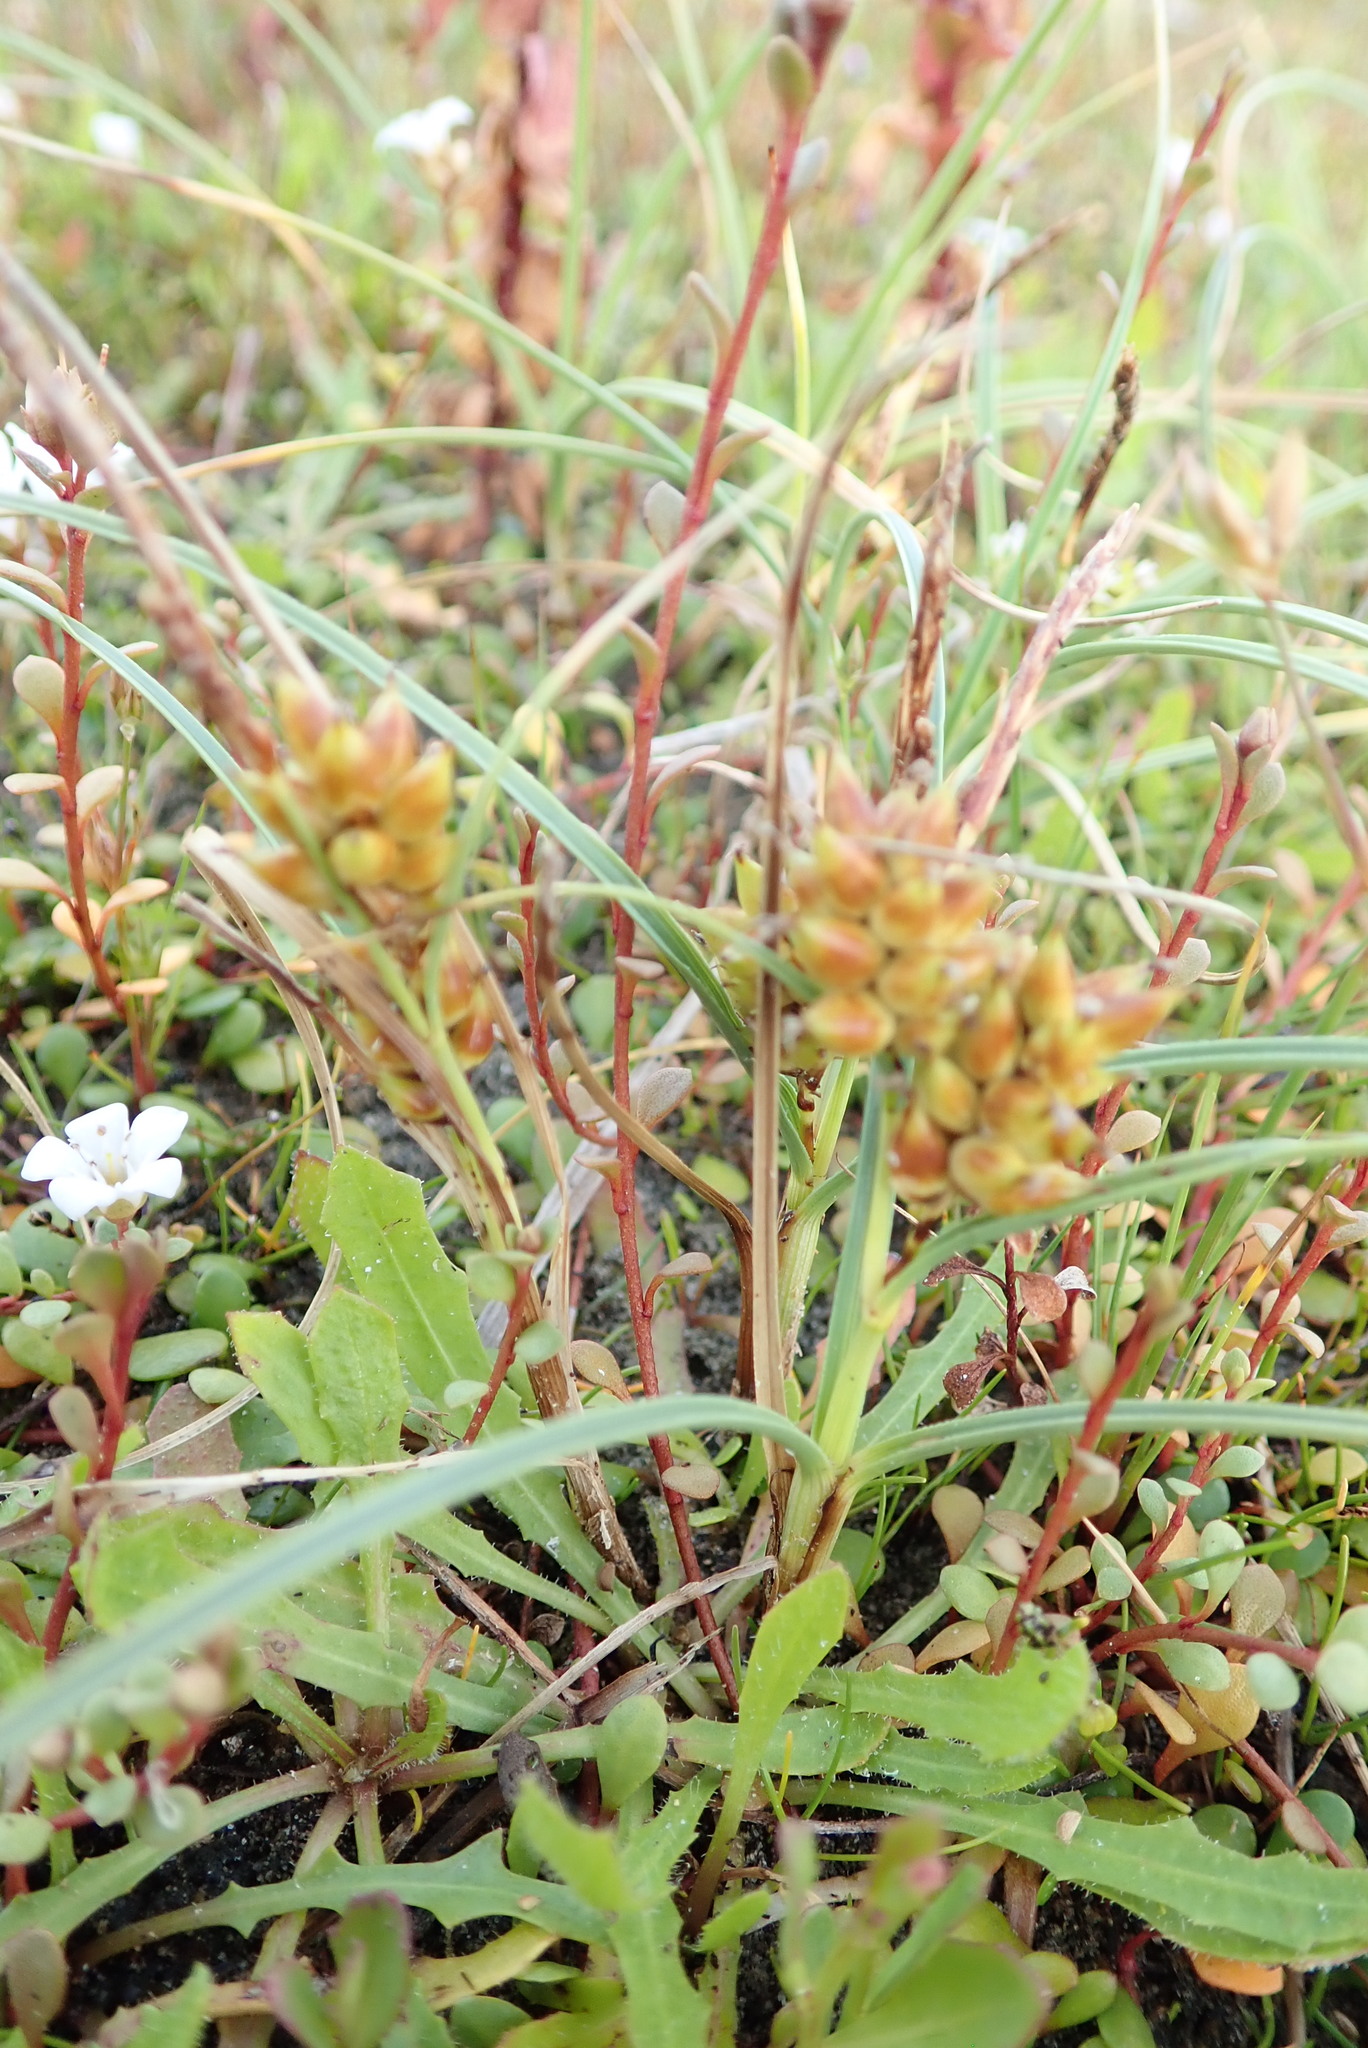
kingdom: Plantae
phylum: Tracheophyta
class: Liliopsida
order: Poales
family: Cyperaceae
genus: Carex
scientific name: Carex pumila
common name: Dwarf sedge
